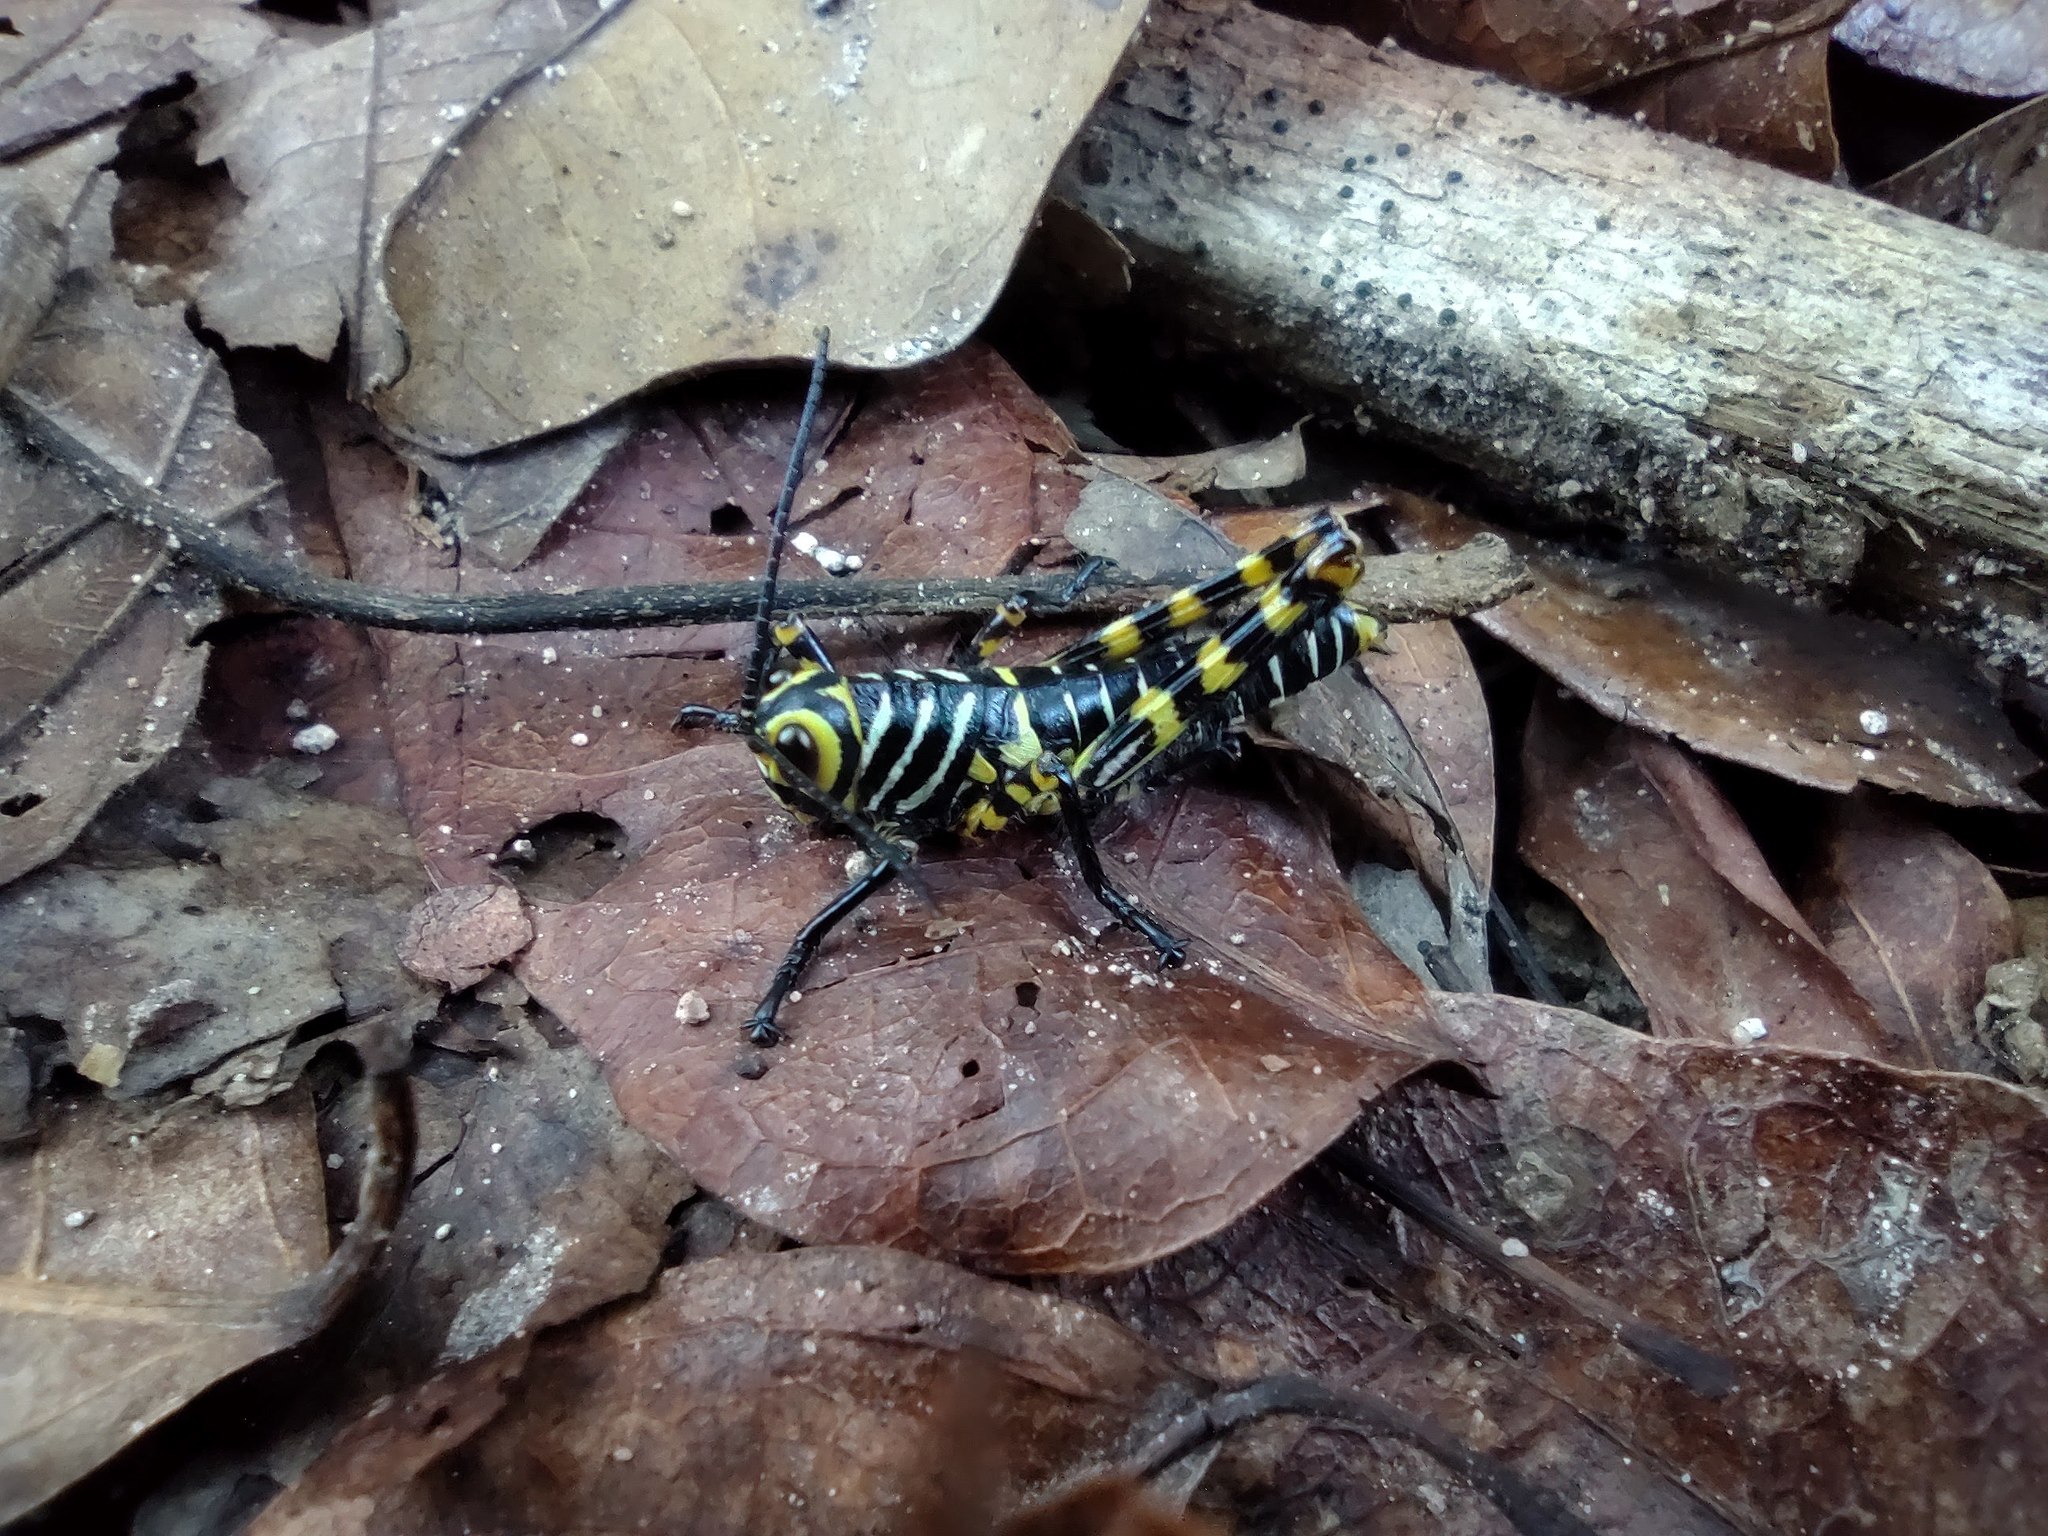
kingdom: Animalia
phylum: Arthropoda
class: Insecta
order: Orthoptera
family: Romaleidae
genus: Tropidacris
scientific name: Tropidacris cristata
